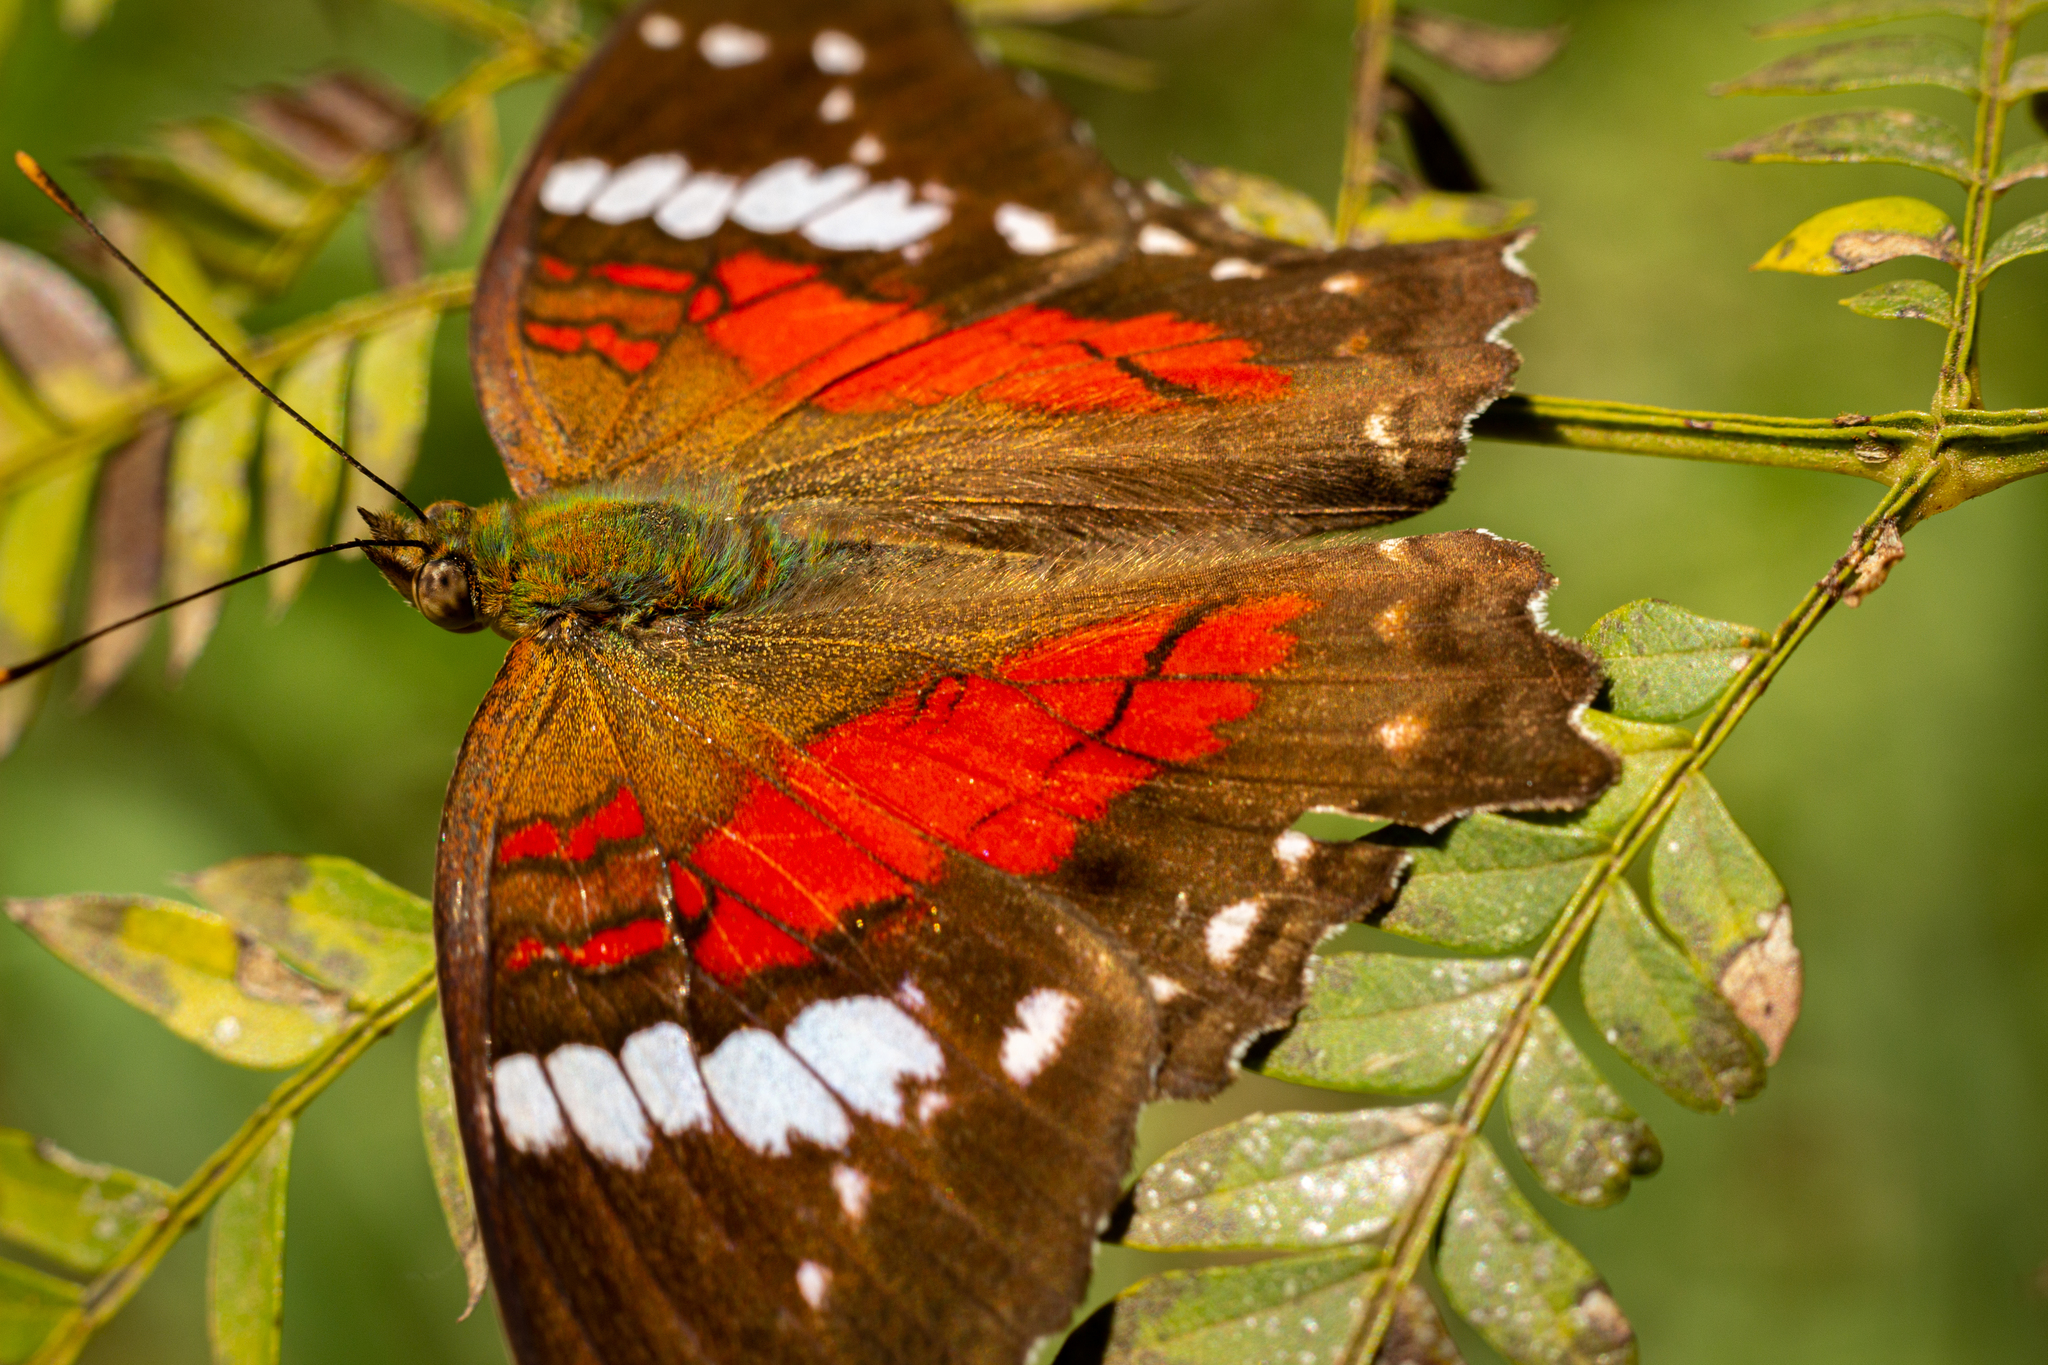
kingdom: Animalia
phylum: Arthropoda
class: Insecta
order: Lepidoptera
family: Nymphalidae
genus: Anartia
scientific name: Anartia amathea
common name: Red peacock
